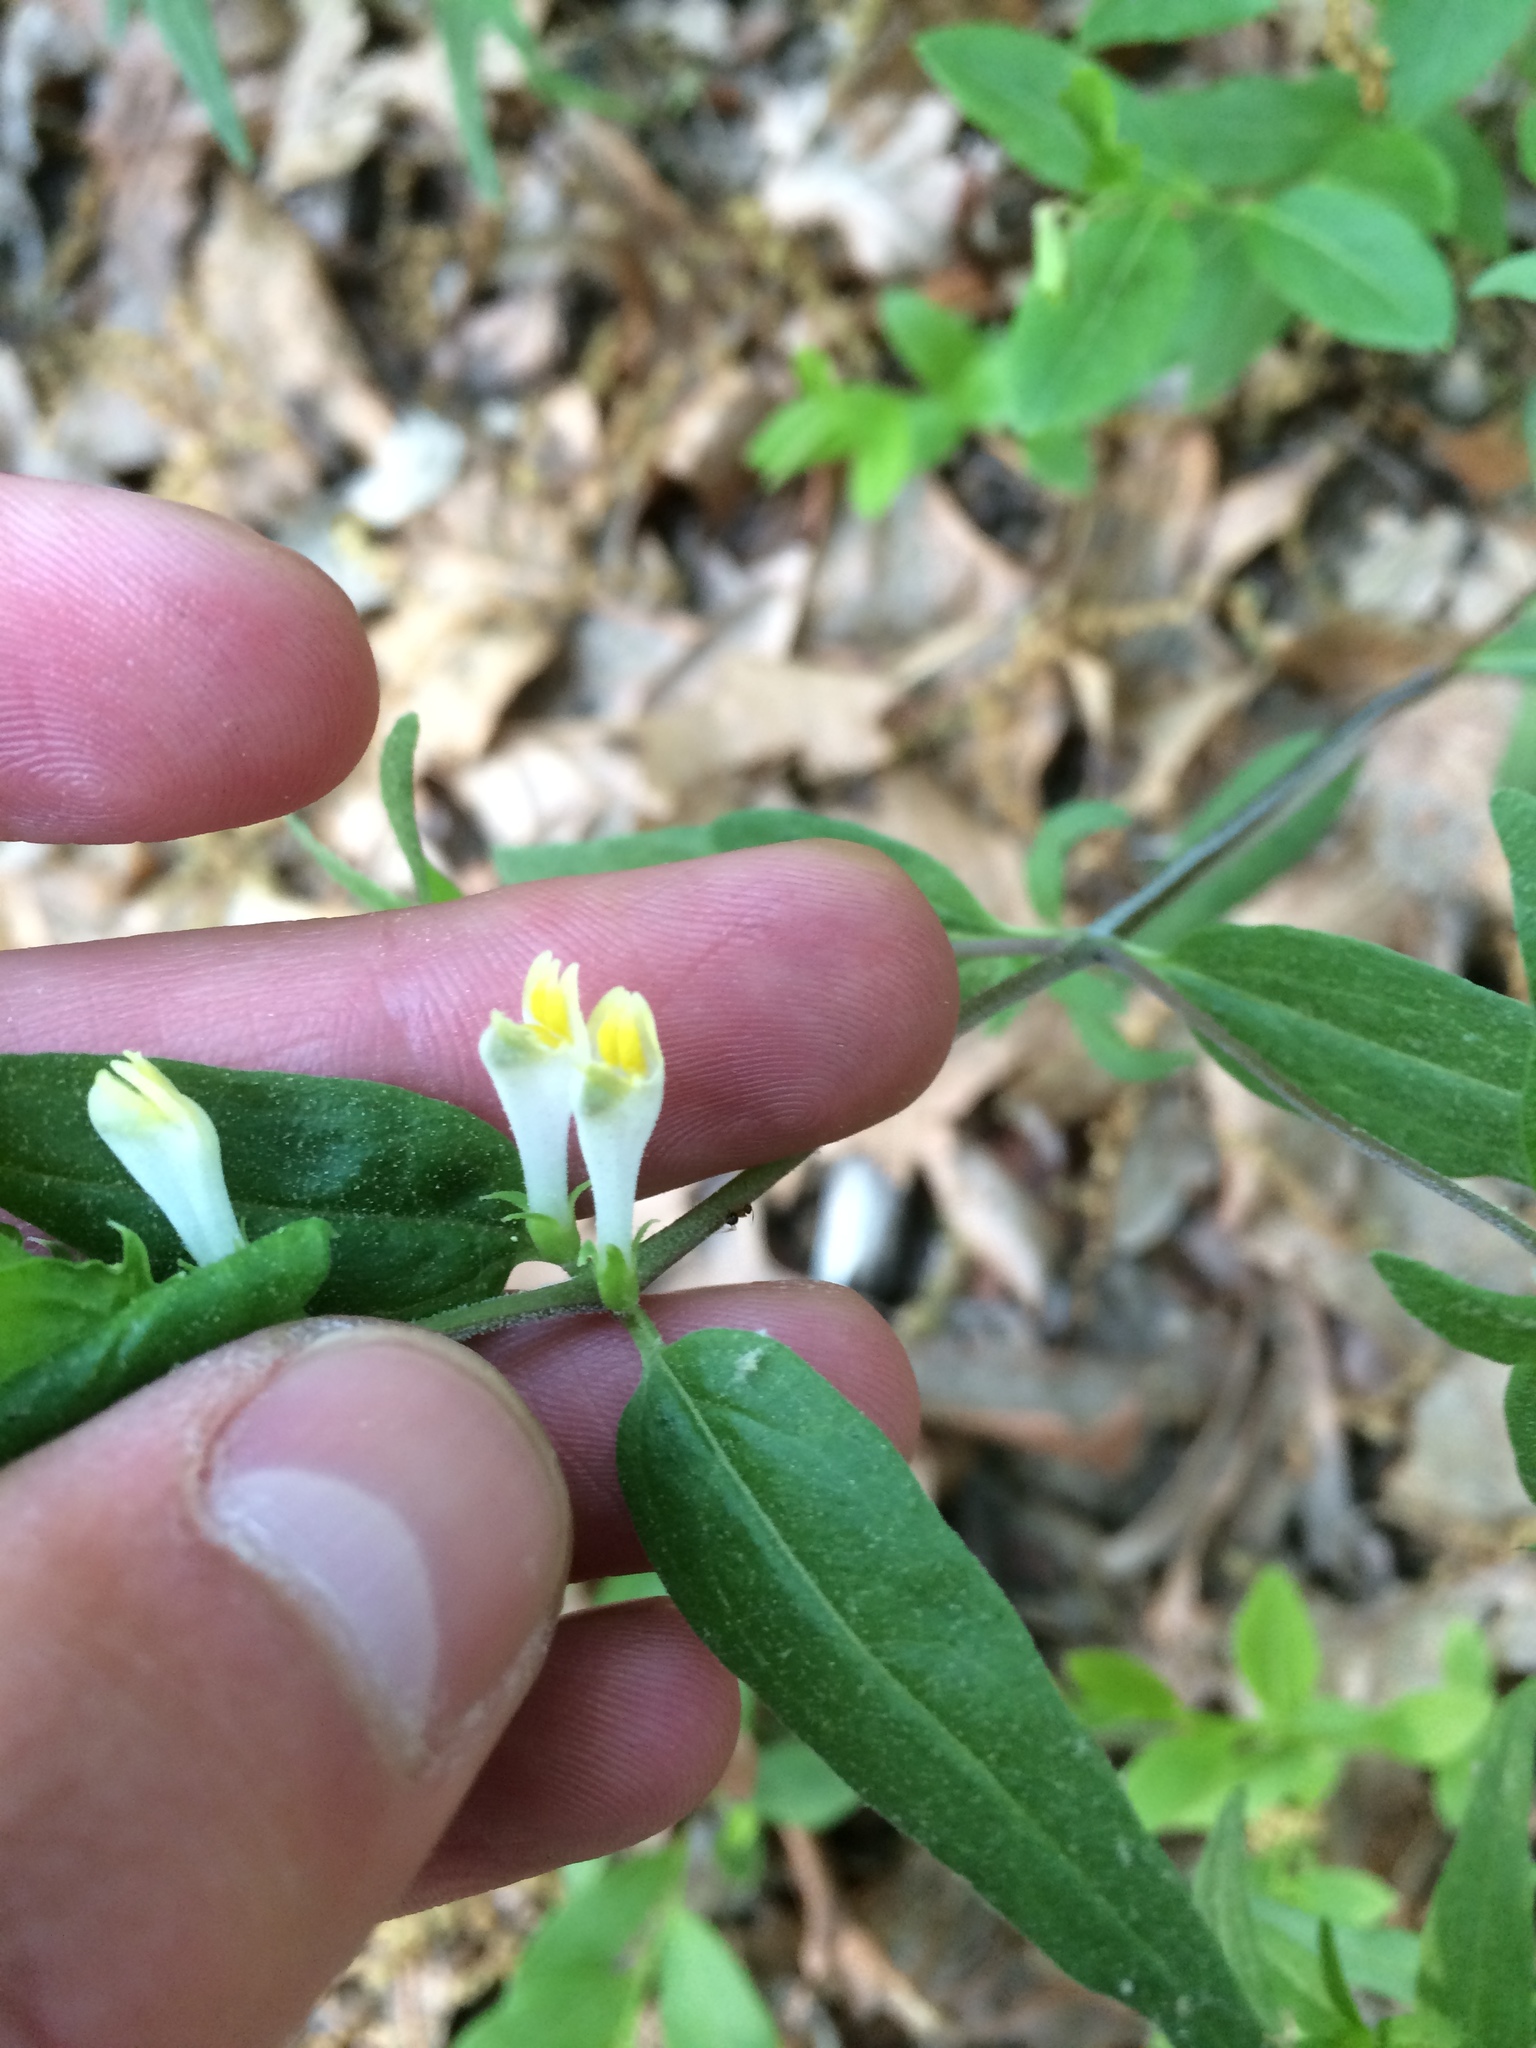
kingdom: Plantae
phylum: Tracheophyta
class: Magnoliopsida
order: Lamiales
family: Orobanchaceae
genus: Melampyrum
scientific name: Melampyrum lineare
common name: American cow-wheat
